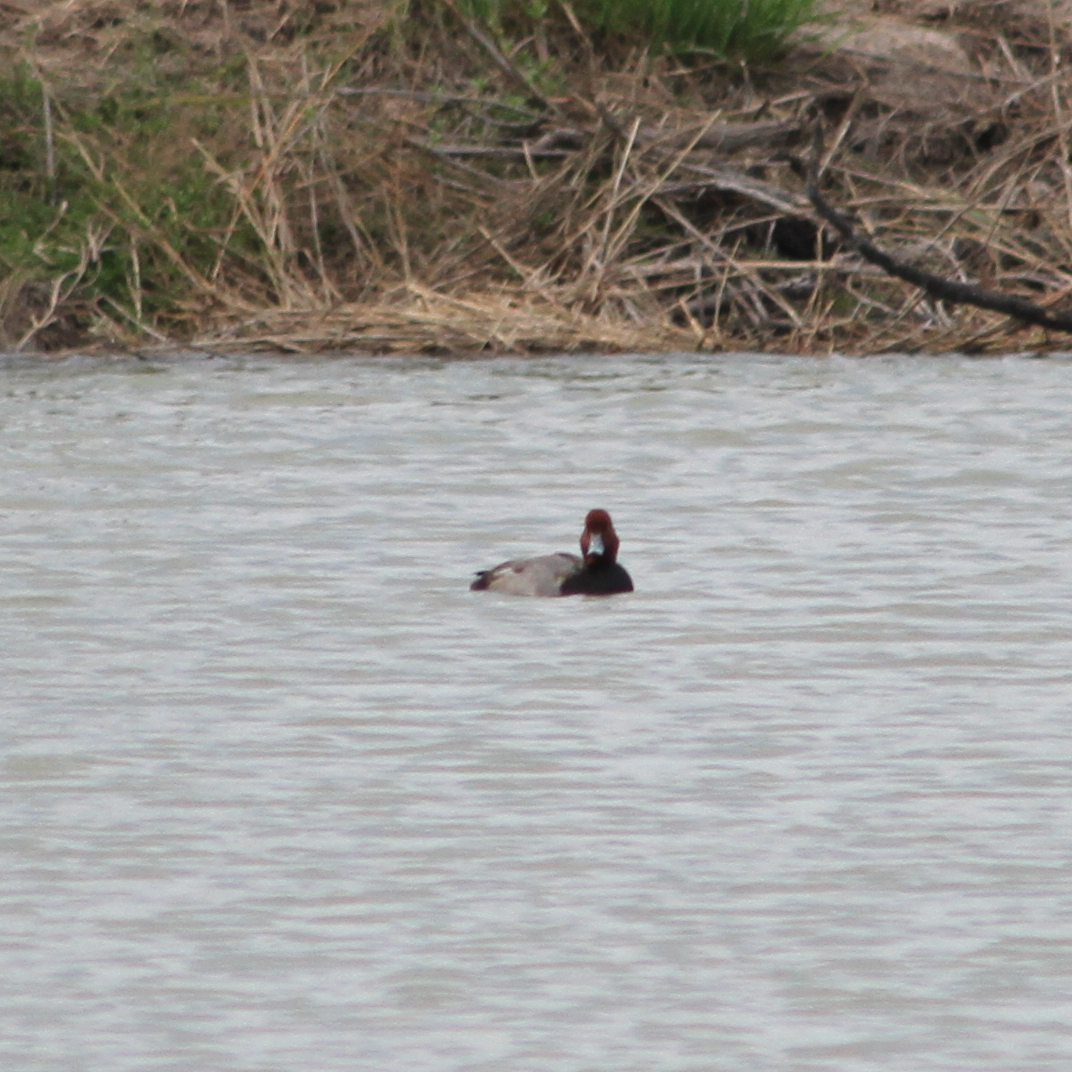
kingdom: Animalia
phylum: Chordata
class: Aves
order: Anseriformes
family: Anatidae
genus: Aythya
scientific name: Aythya americana
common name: Redhead
